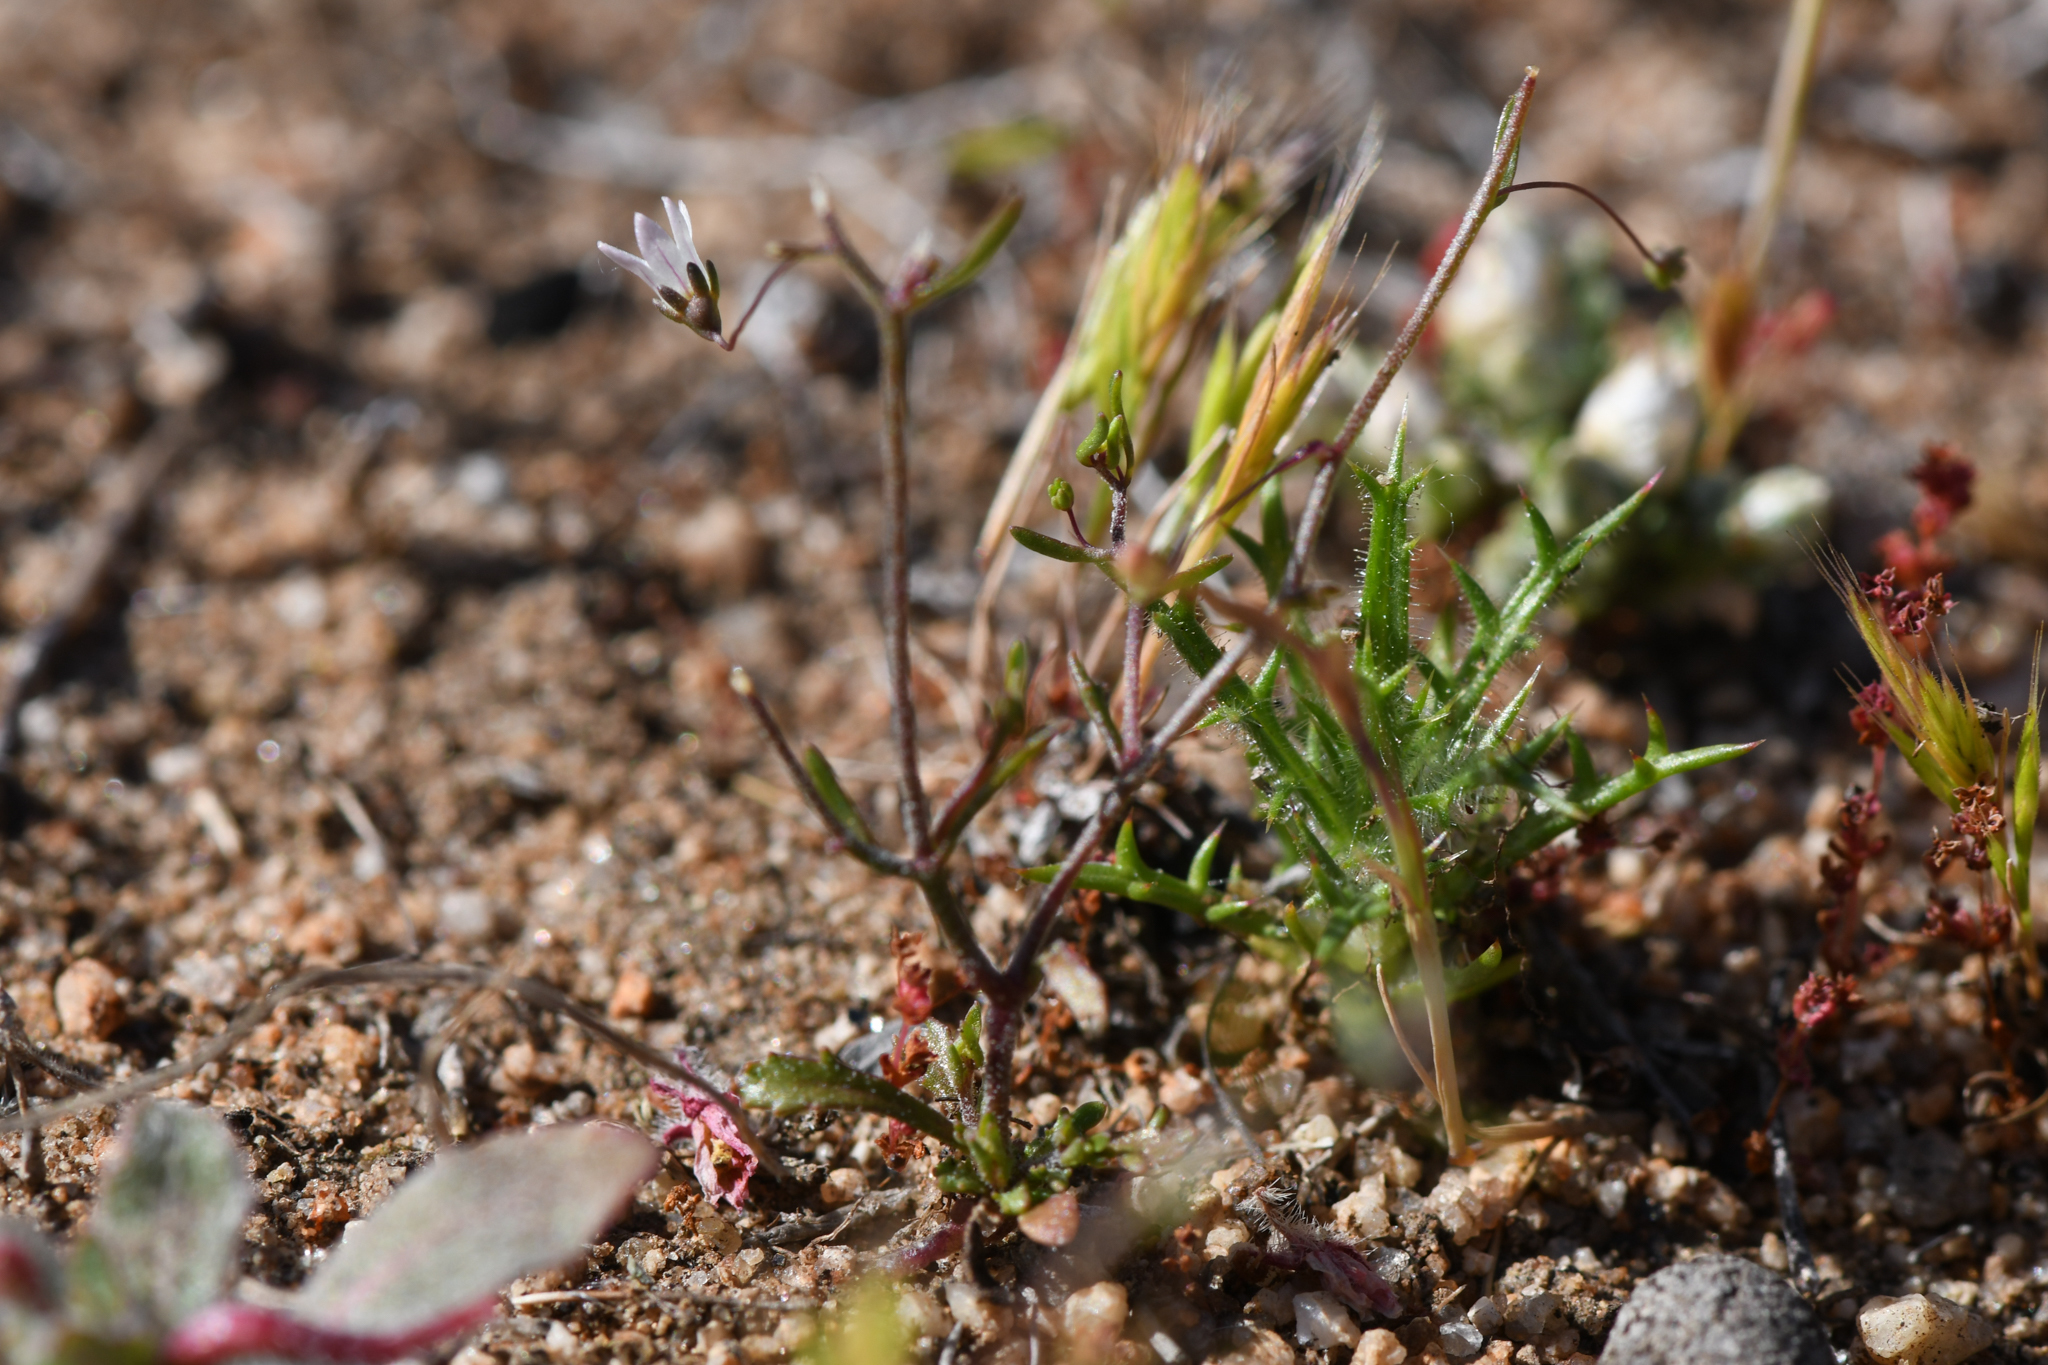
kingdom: Plantae
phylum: Tracheophyta
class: Magnoliopsida
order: Asterales
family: Campanulaceae
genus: Nemacladus
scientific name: Nemacladus ramosissimus
